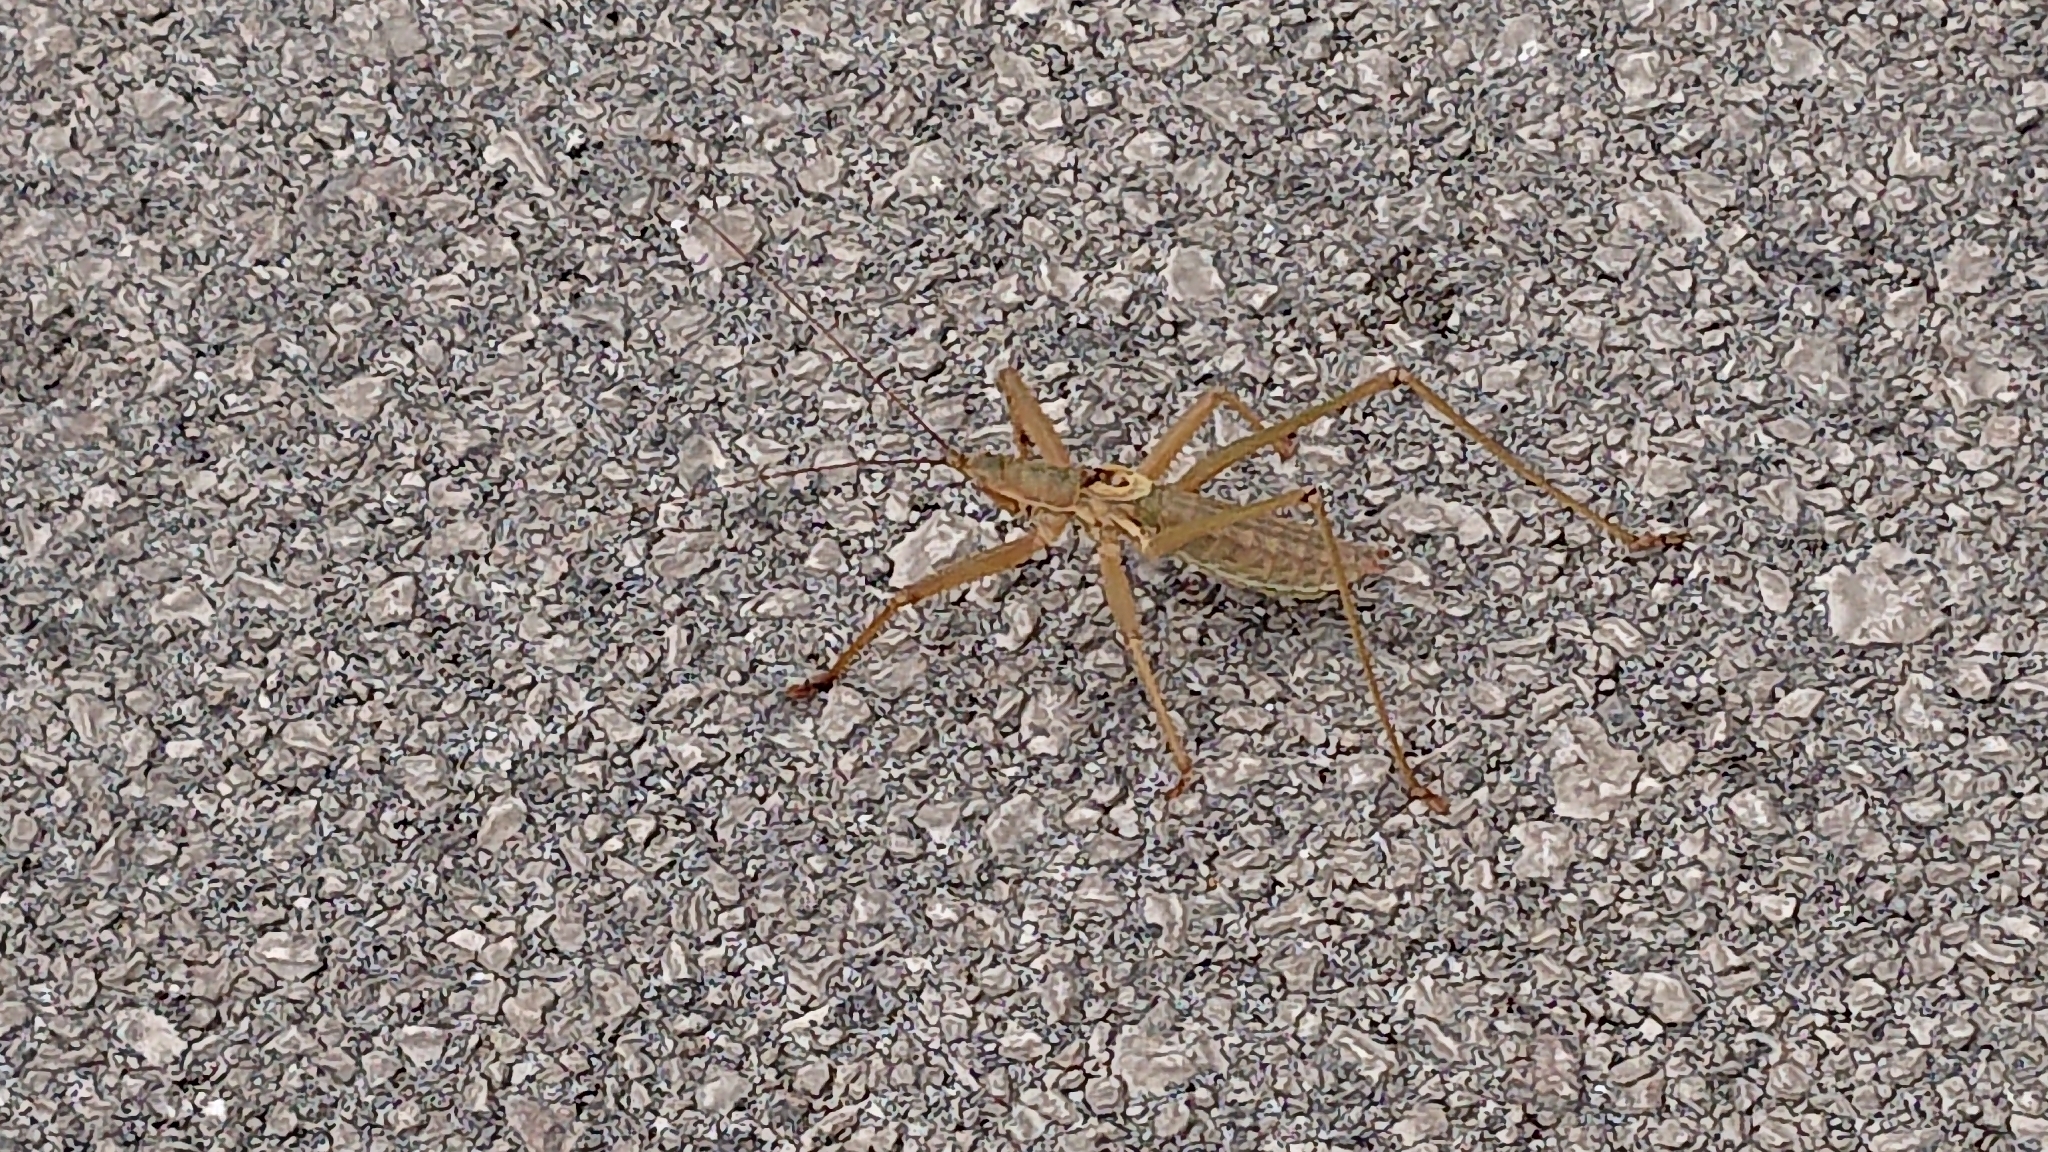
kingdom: Animalia
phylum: Arthropoda
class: Insecta
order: Orthoptera
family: Tettigoniidae
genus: Saga
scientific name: Saga hellenica
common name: Greek predatory bush-cricket
